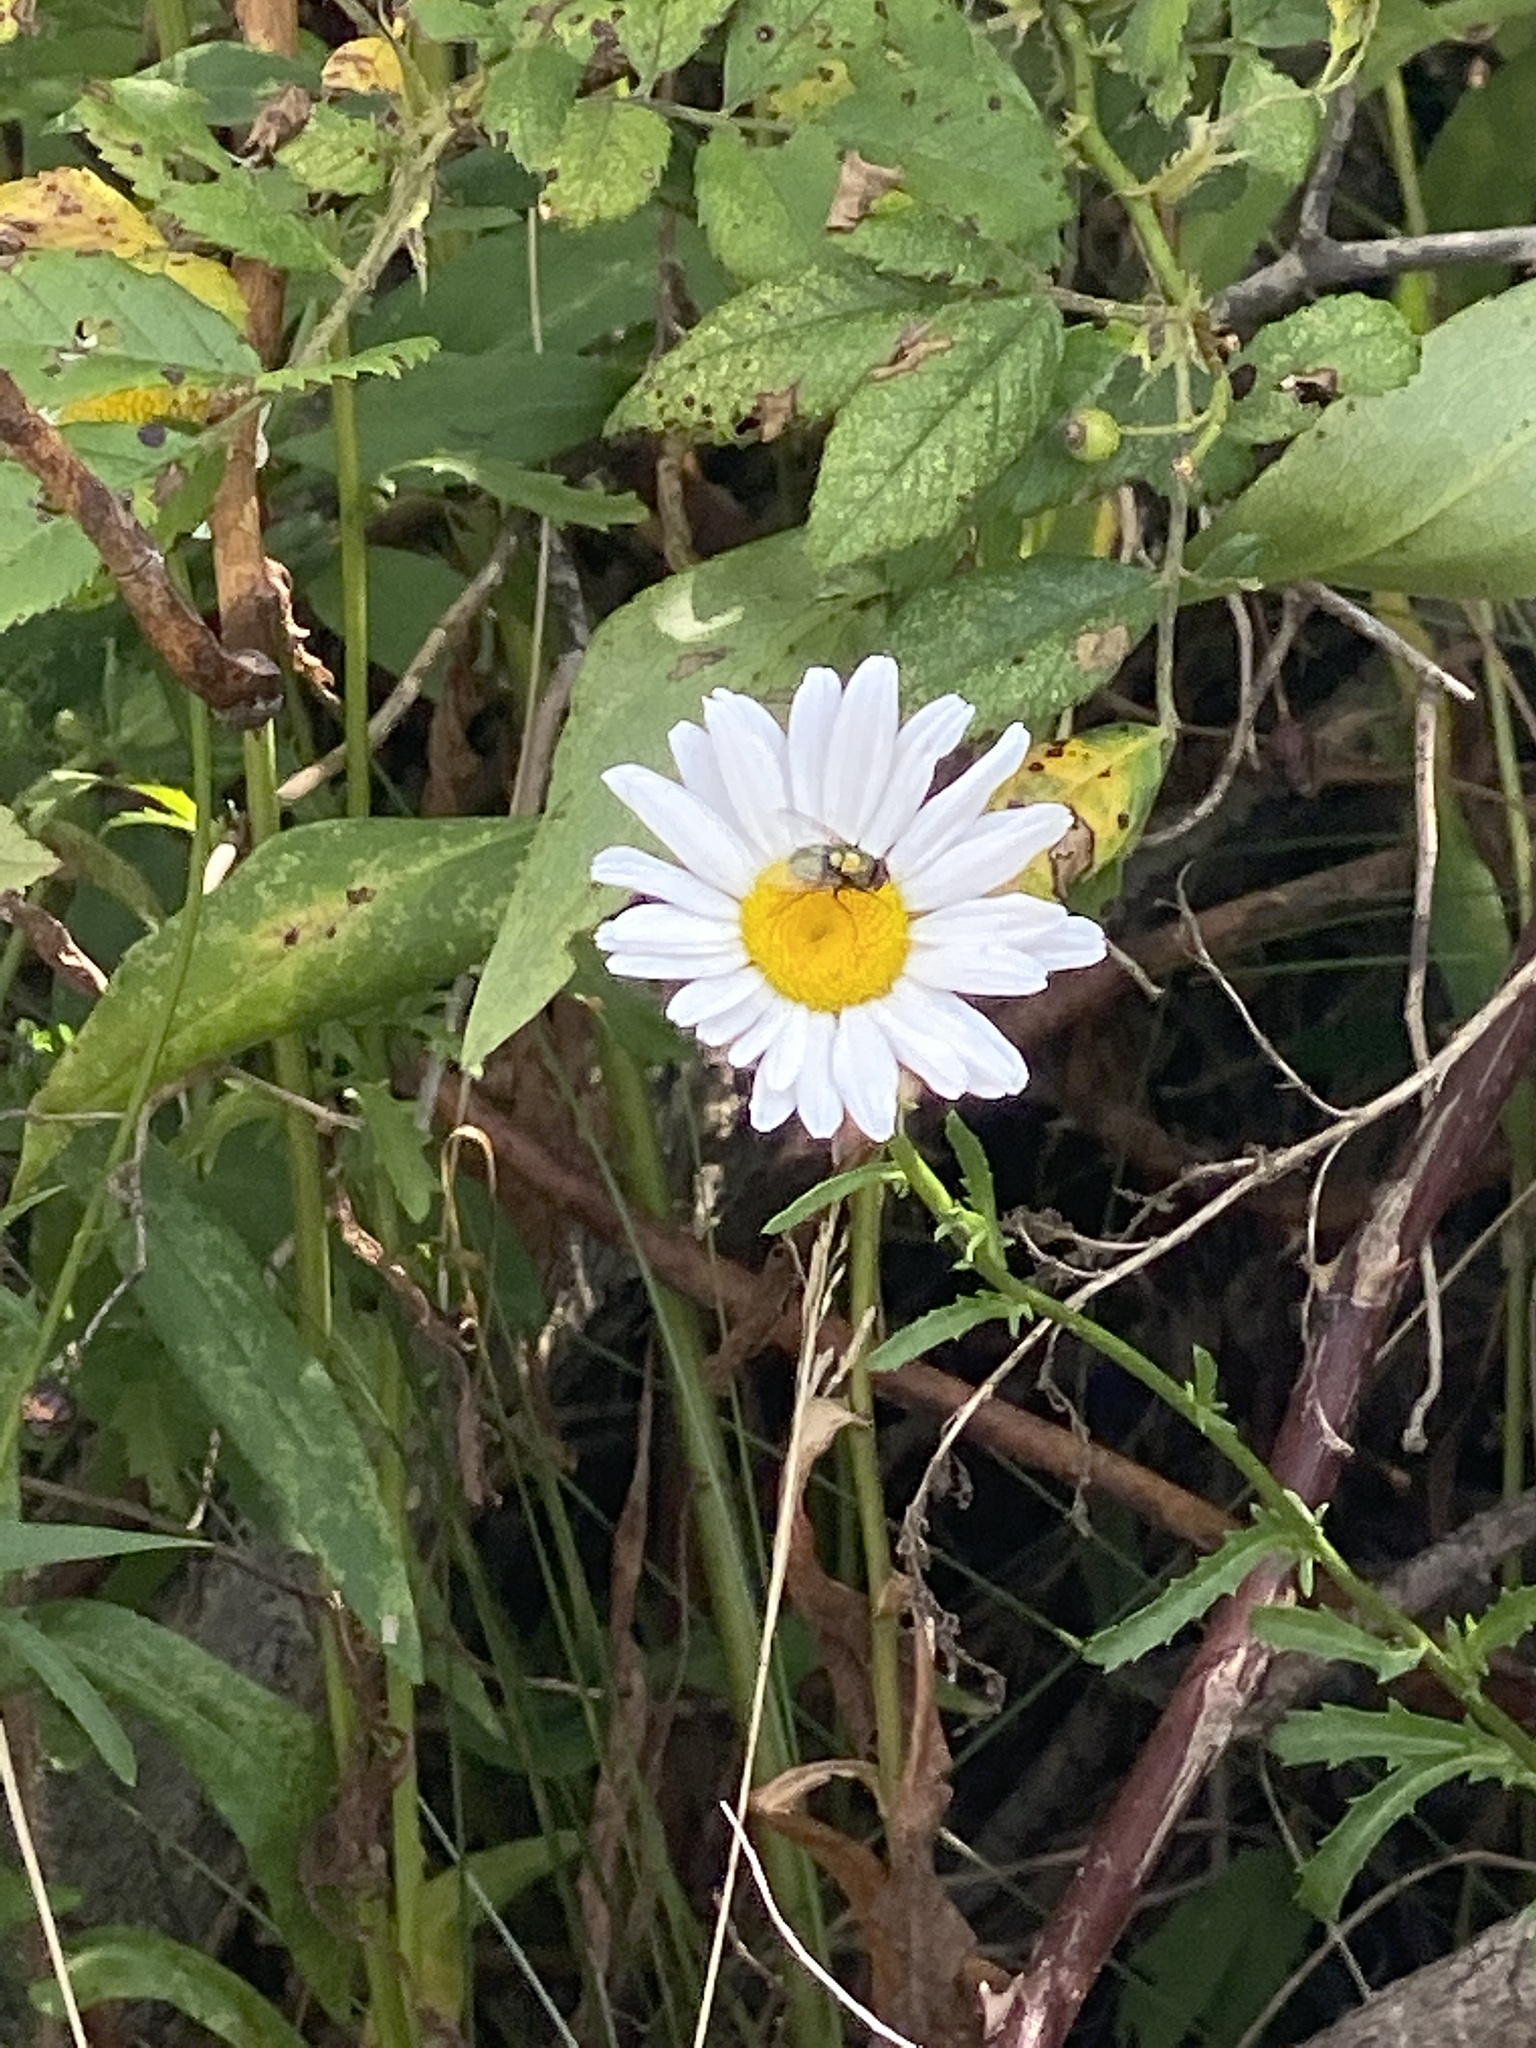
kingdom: Plantae
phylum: Tracheophyta
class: Magnoliopsida
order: Asterales
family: Asteraceae
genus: Leucanthemum
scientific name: Leucanthemum vulgare
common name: Oxeye daisy
